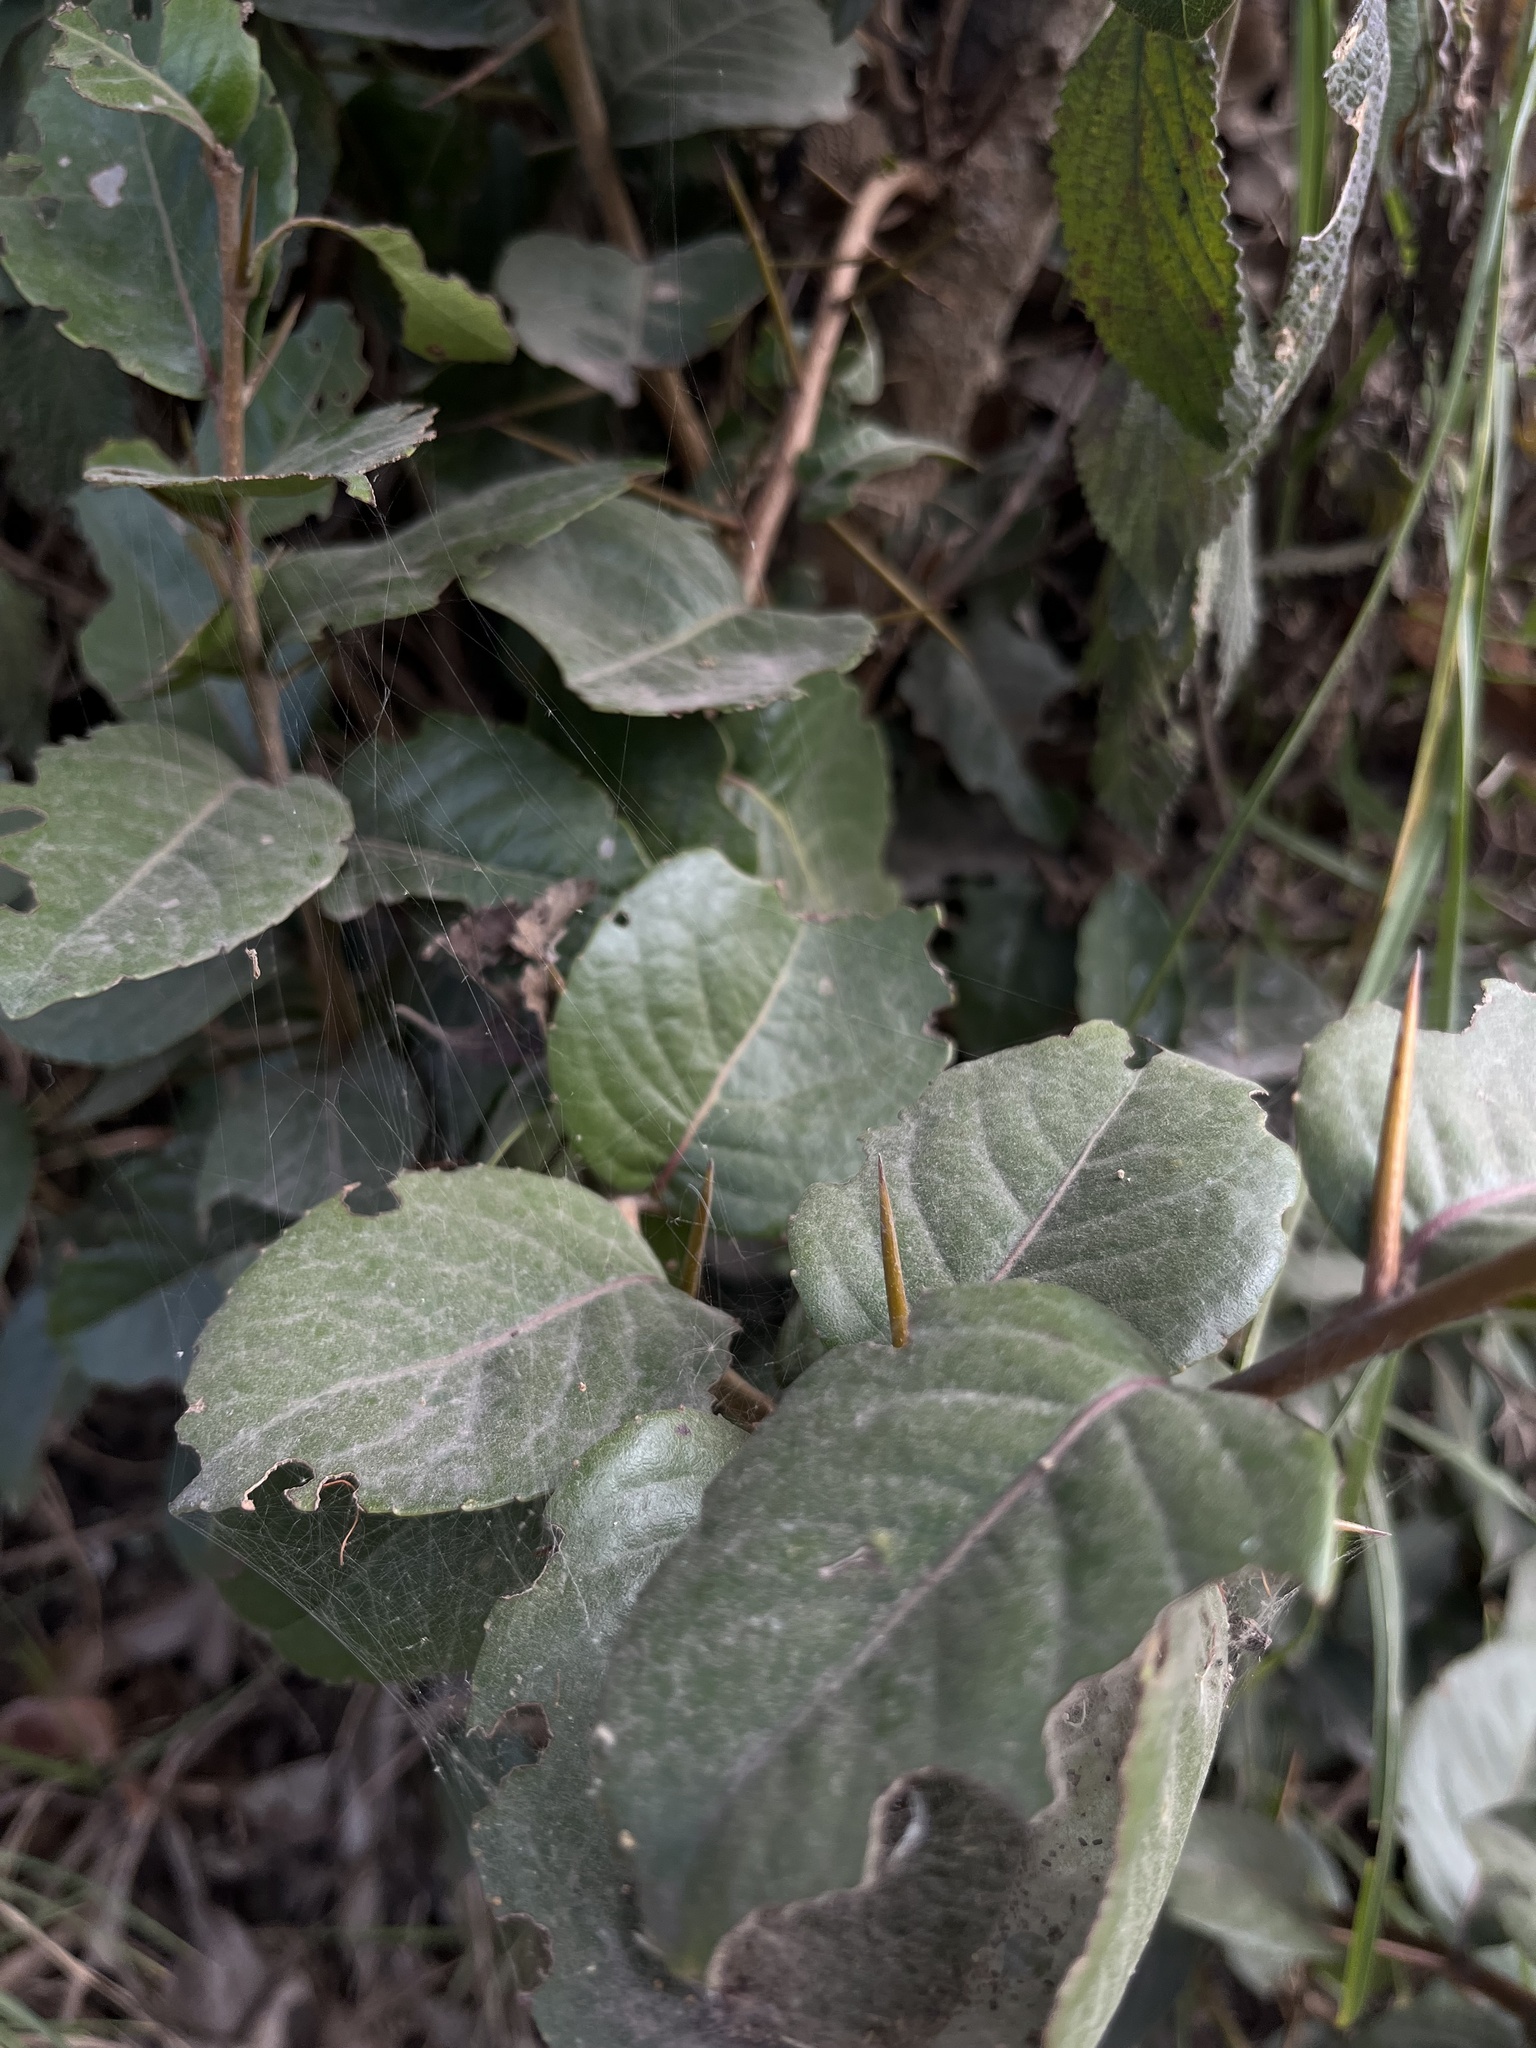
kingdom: Plantae
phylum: Tracheophyta
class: Magnoliopsida
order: Malpighiales
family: Salicaceae
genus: Xylosma
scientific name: Xylosma spiculifera
